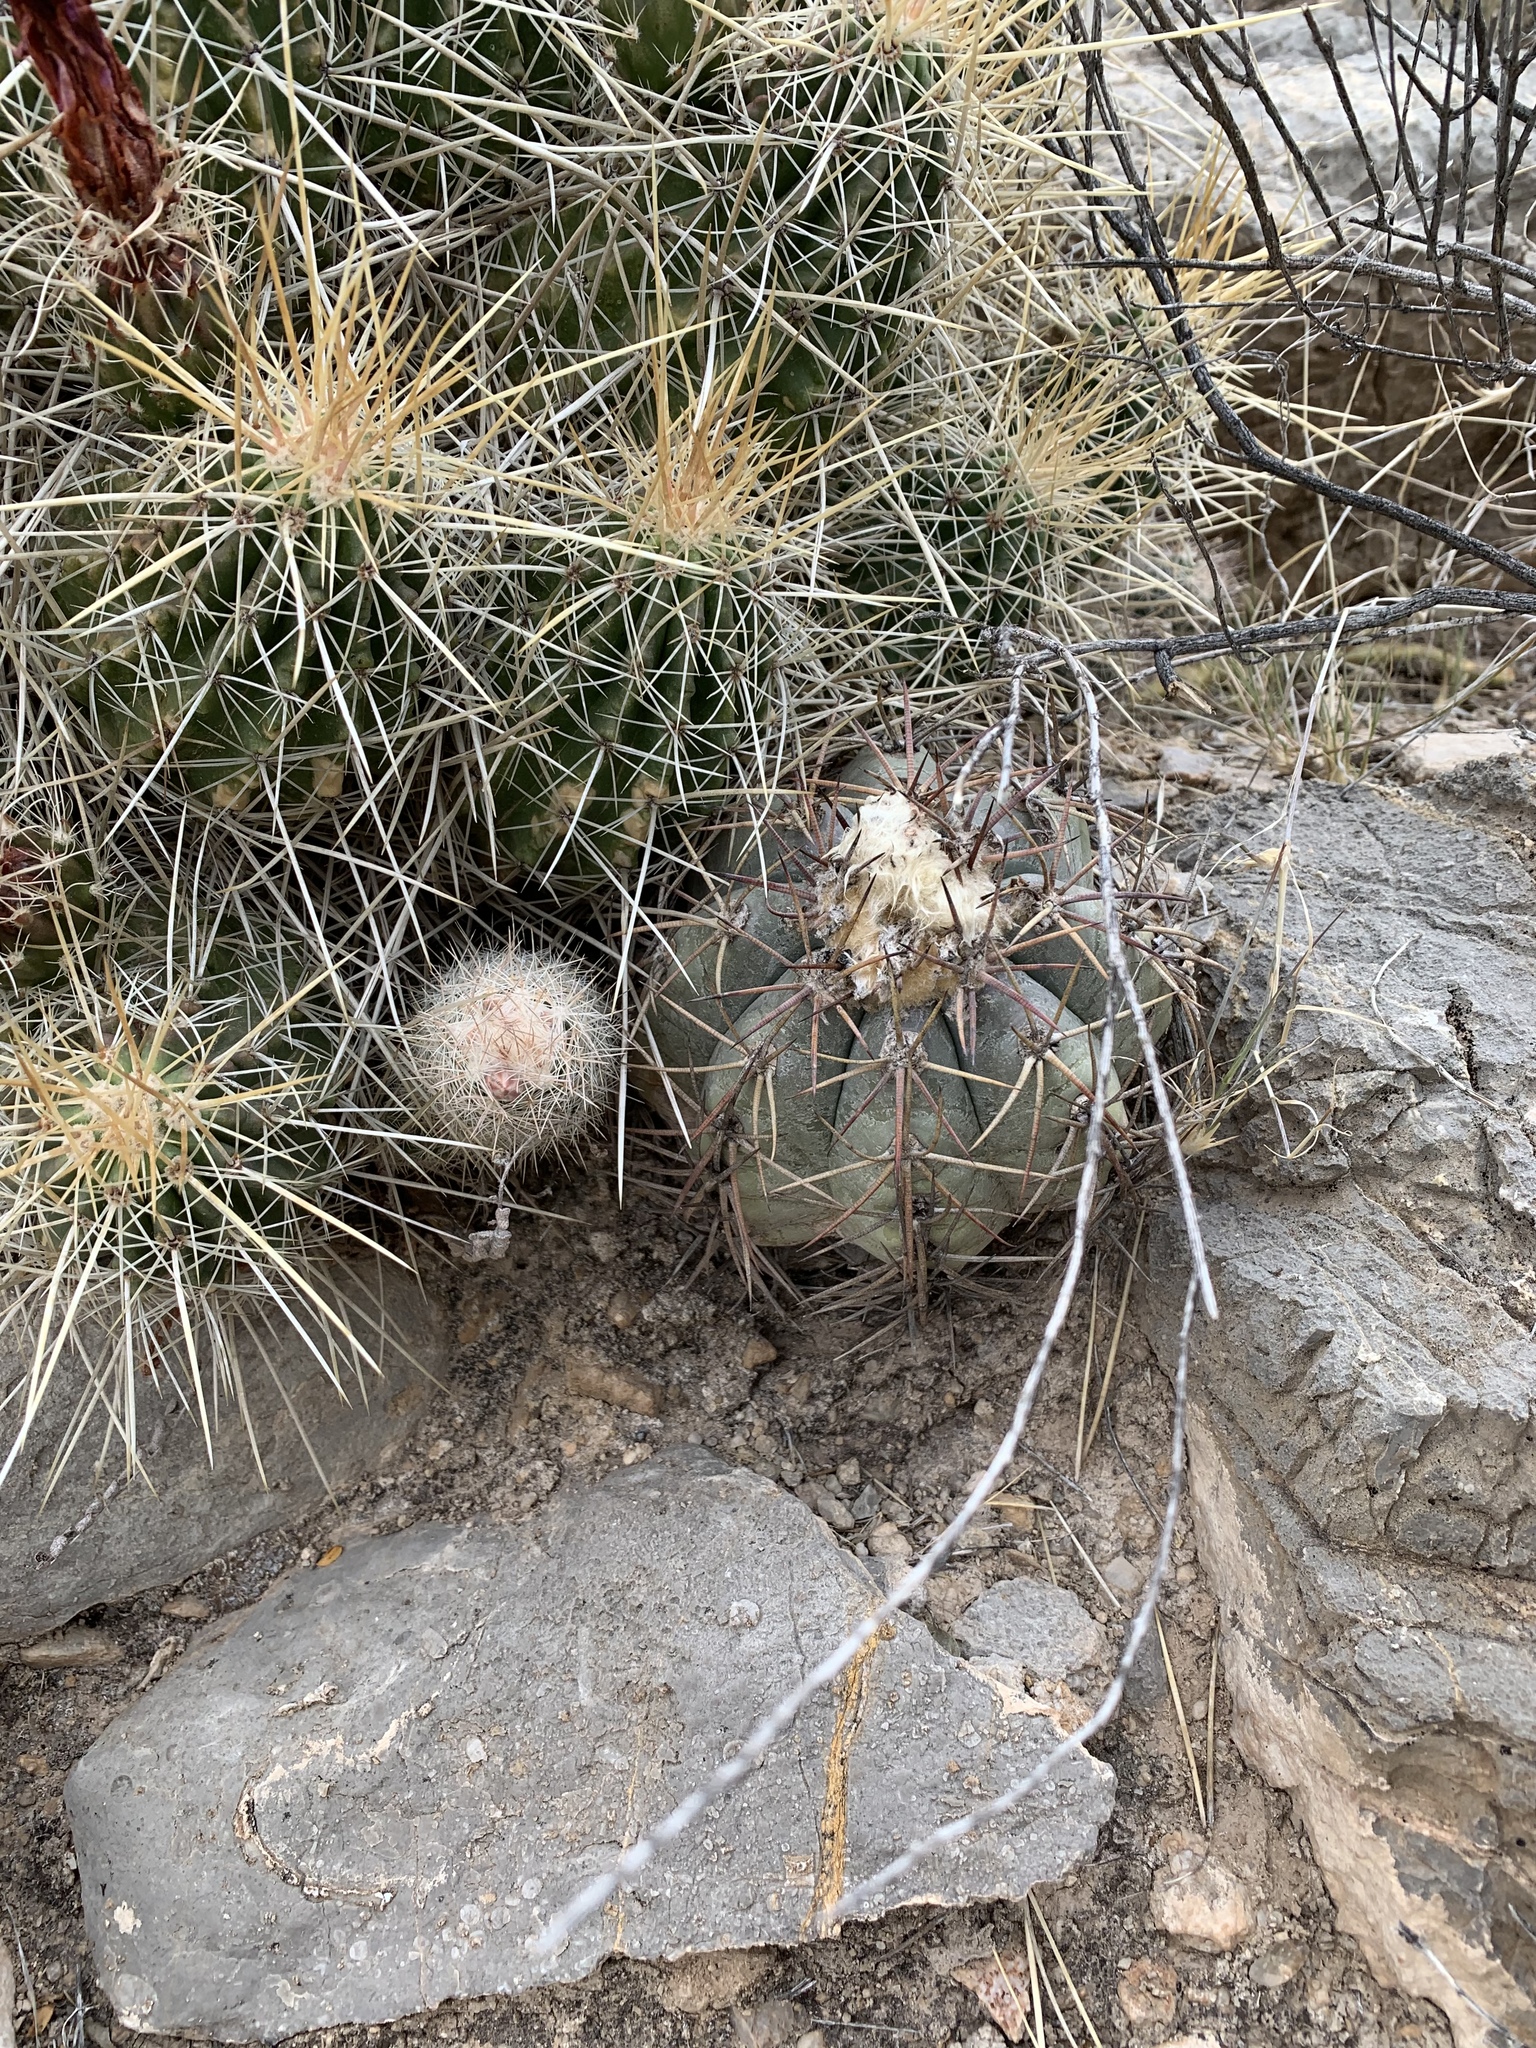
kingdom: Plantae
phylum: Tracheophyta
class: Magnoliopsida
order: Caryophyllales
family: Cactaceae
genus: Echinocactus
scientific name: Echinocactus horizonthalonius
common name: Devilshead
